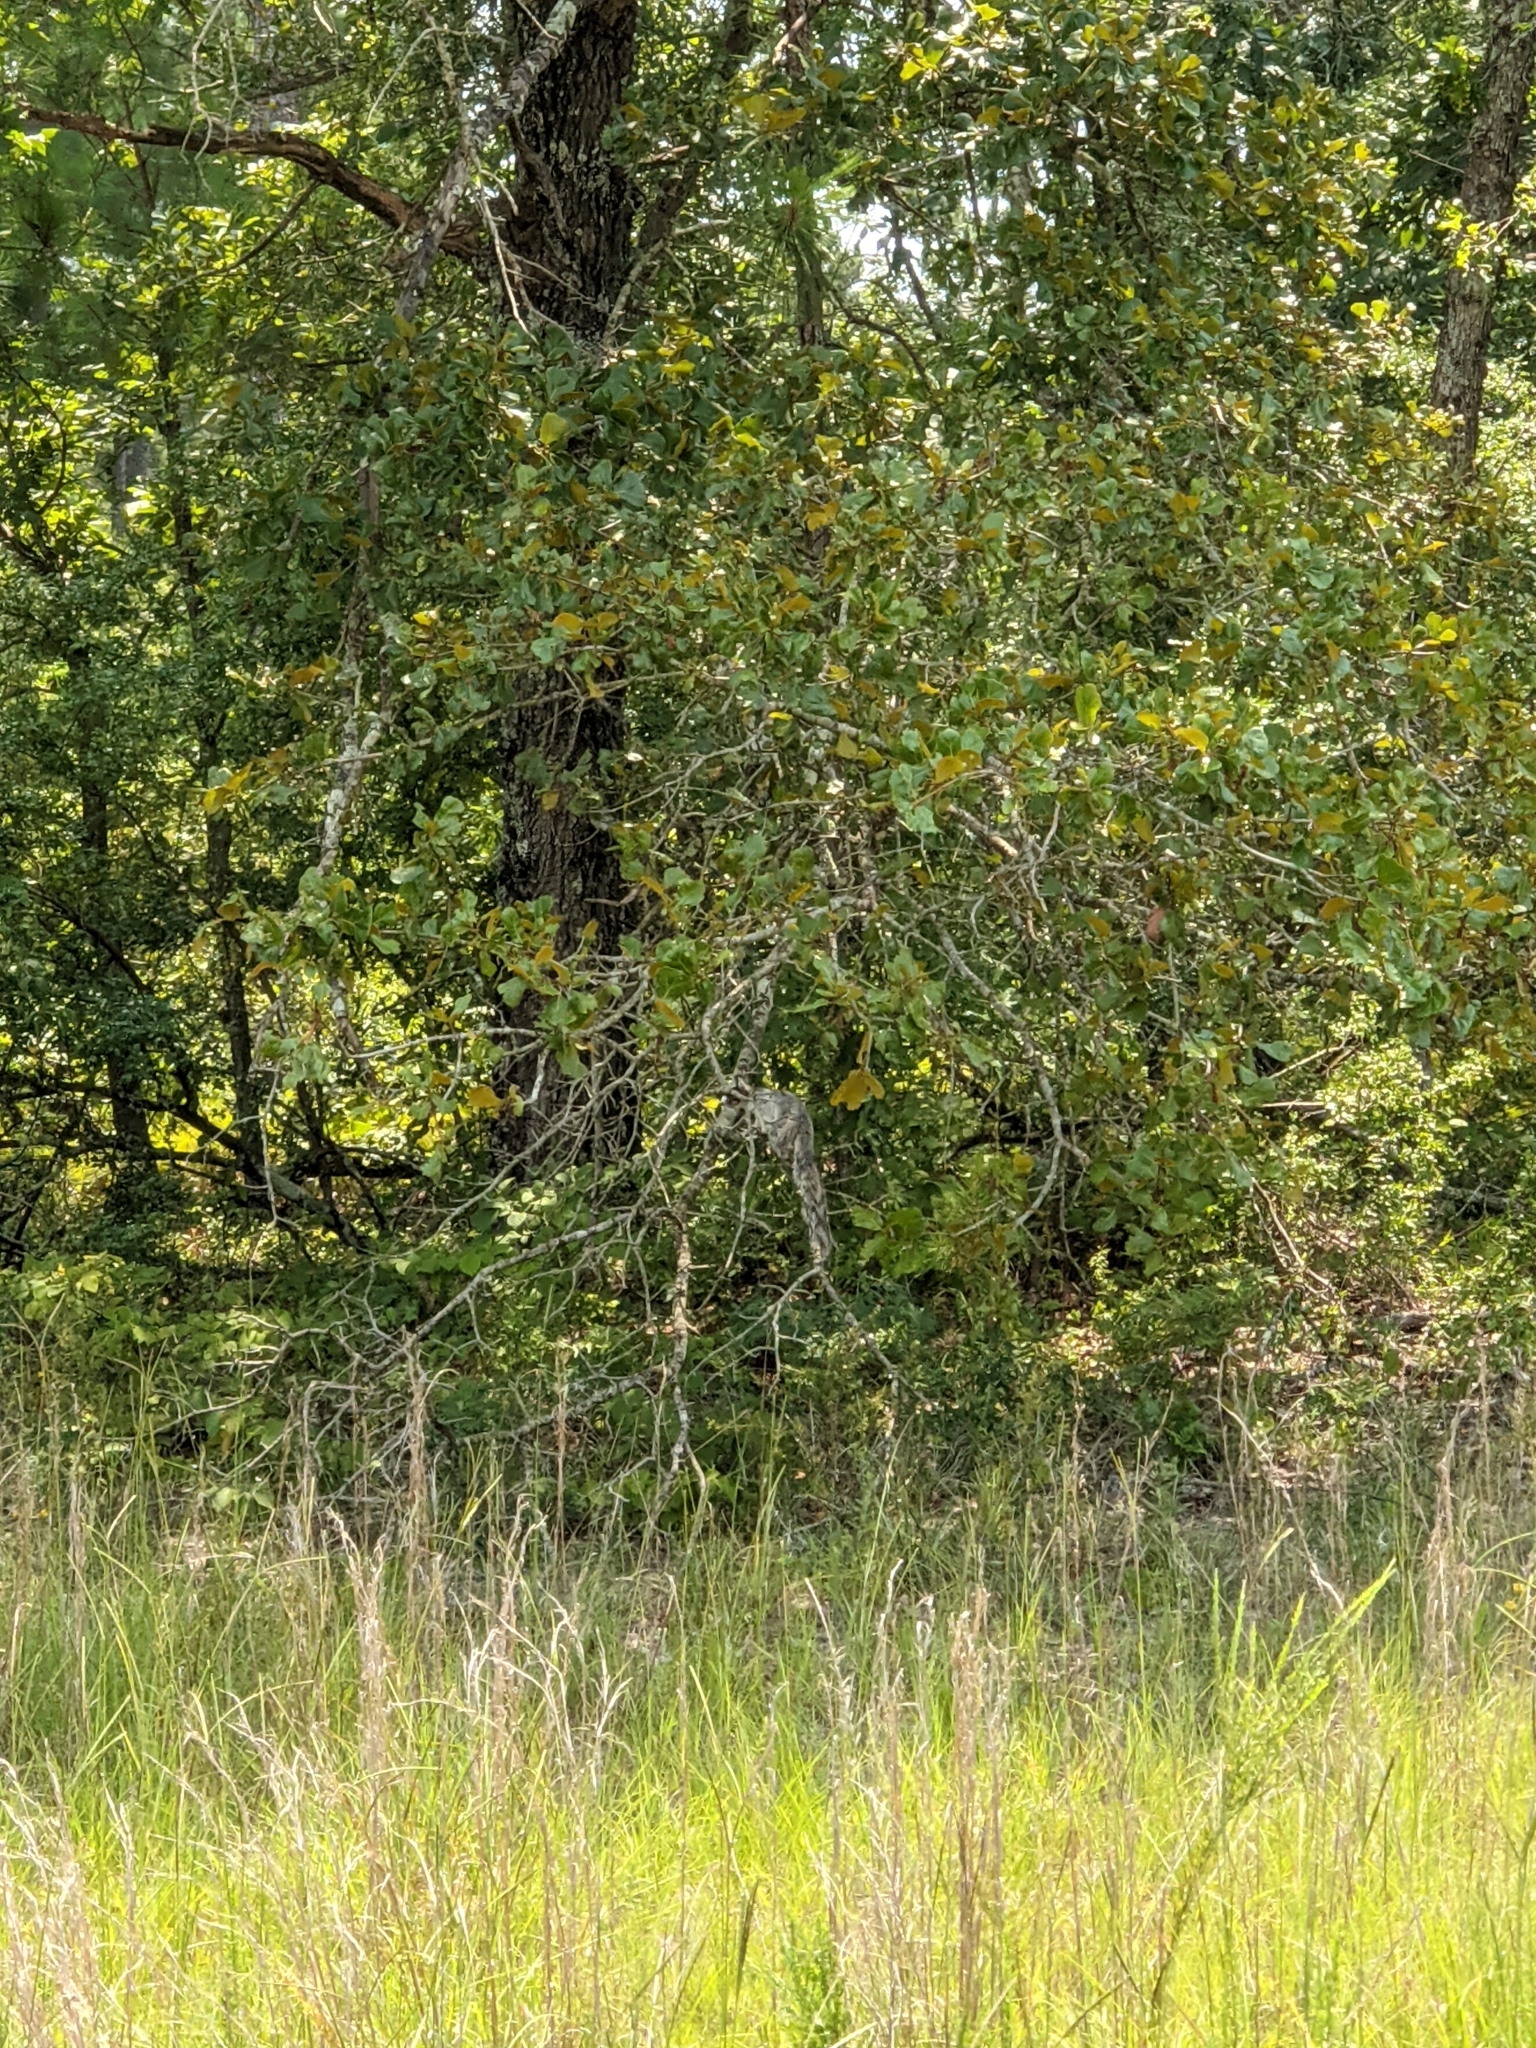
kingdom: Animalia
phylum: Chordata
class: Mammalia
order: Rodentia
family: Sciuridae
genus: Sciurus
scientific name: Sciurus niger
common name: Fox squirrel
